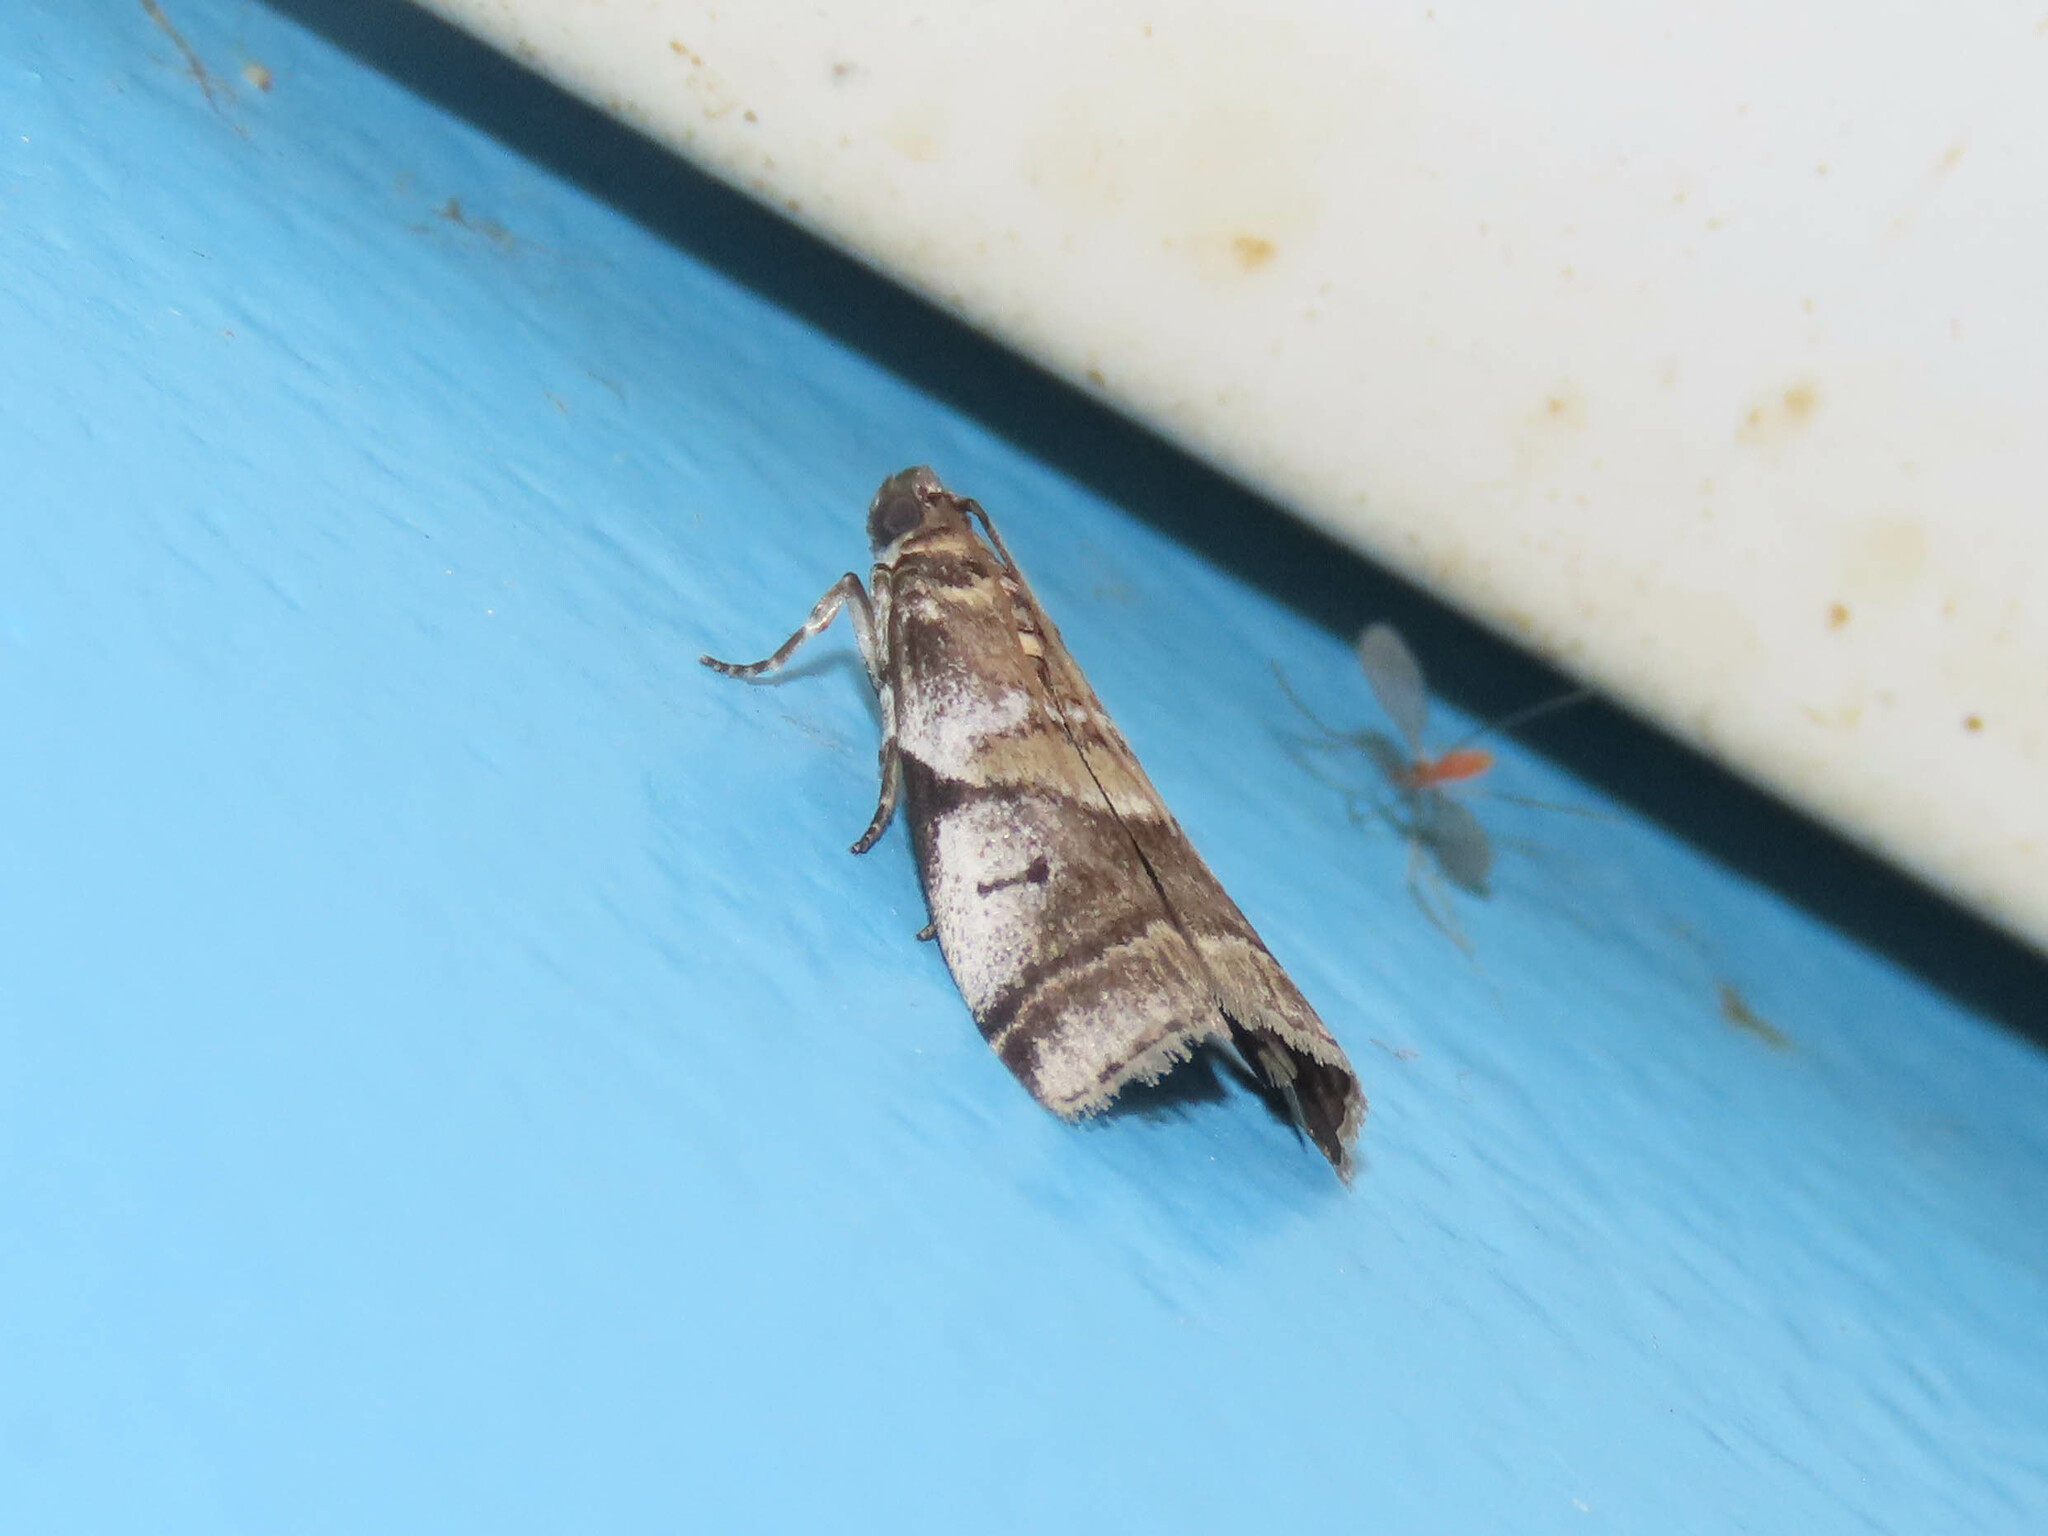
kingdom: Animalia
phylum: Arthropoda
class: Insecta
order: Lepidoptera
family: Pyralidae
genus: Acrobasis
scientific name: Acrobasis indigenella
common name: Leaf crumpler moth
